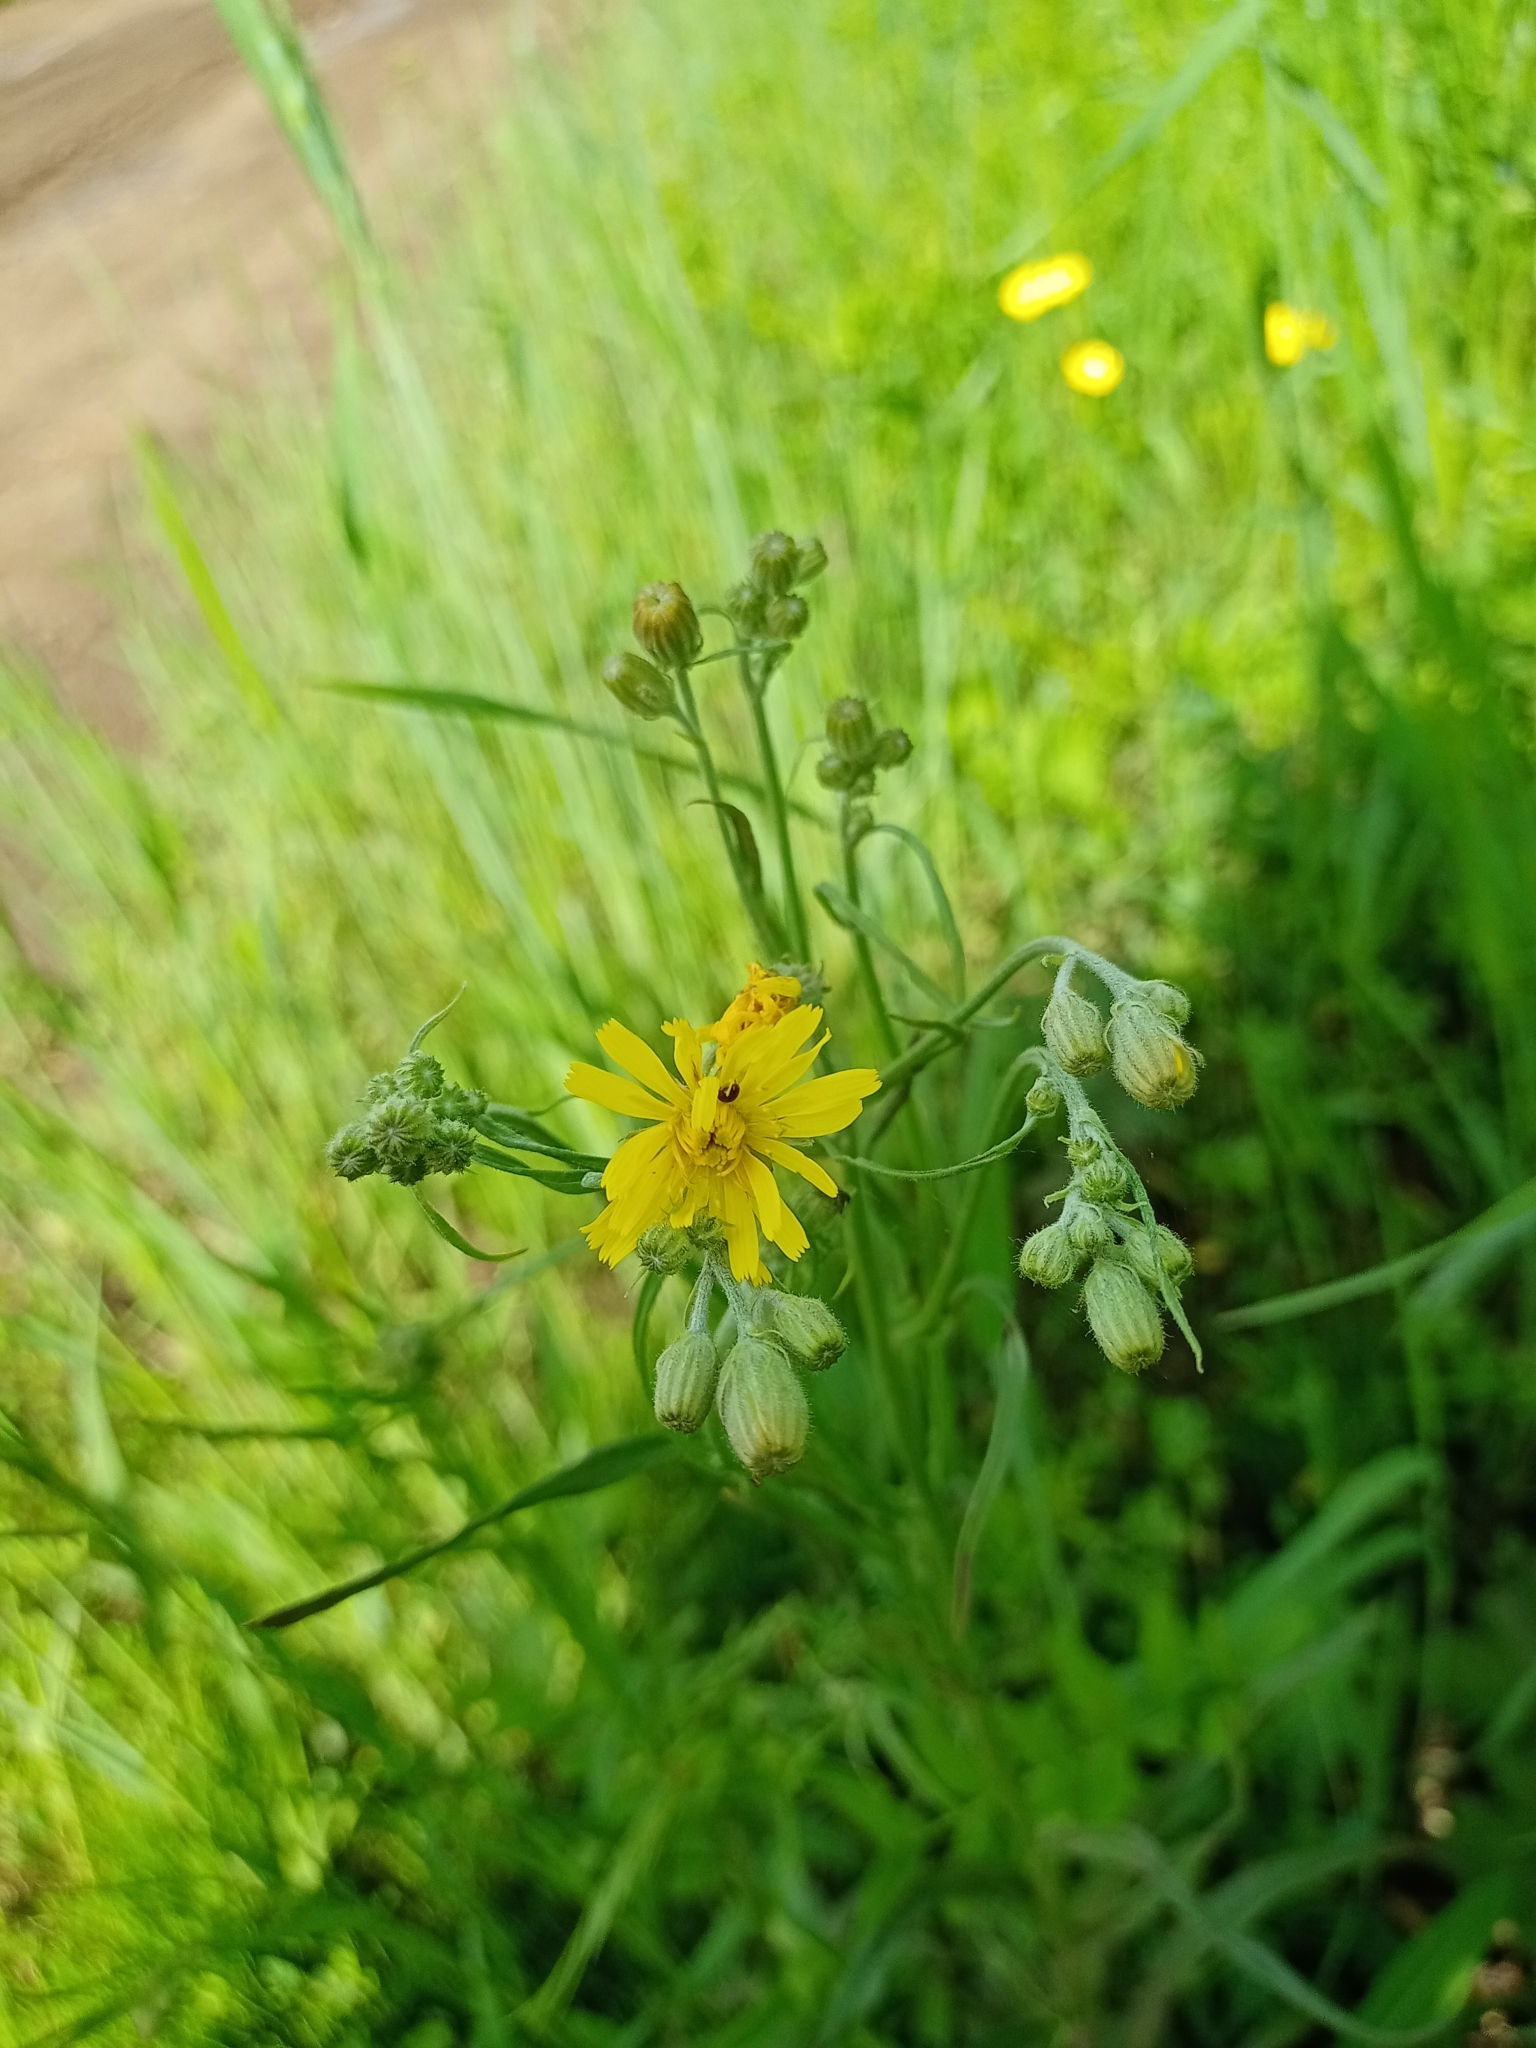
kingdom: Plantae
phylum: Tracheophyta
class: Magnoliopsida
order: Asterales
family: Asteraceae
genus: Crepis
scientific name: Crepis tectorum
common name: Narrow-leaved hawk's-beard
